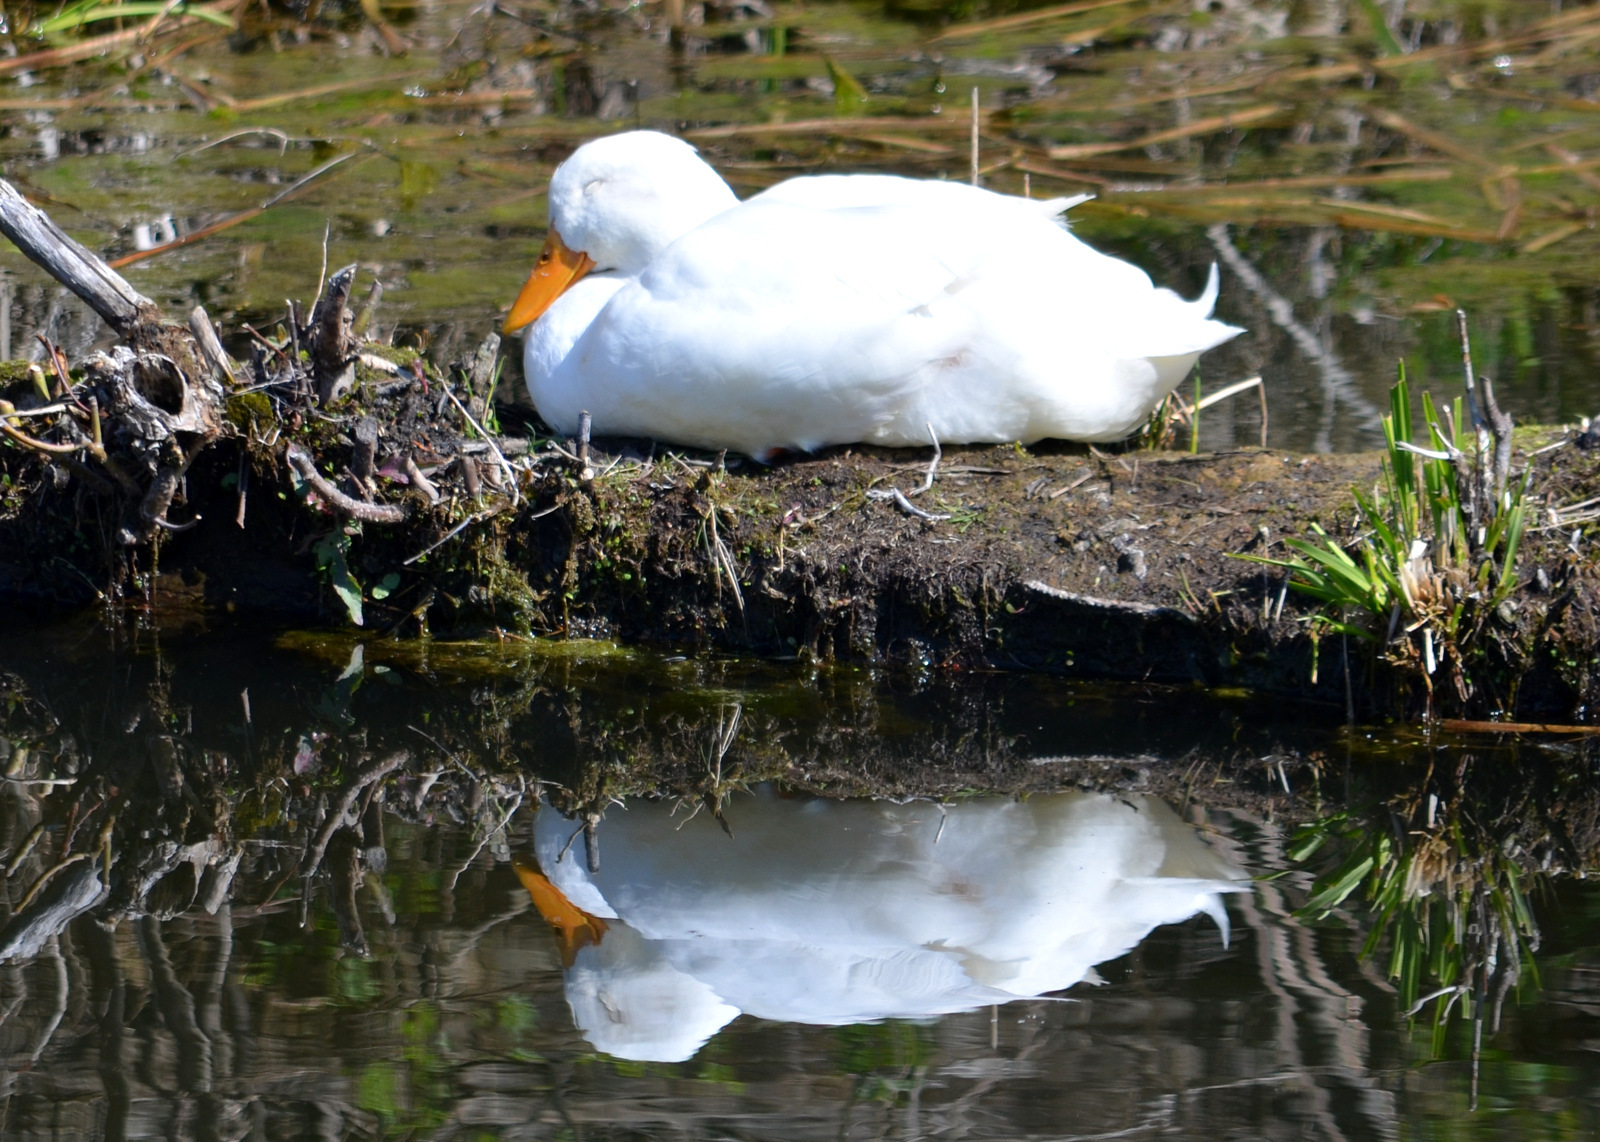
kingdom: Animalia
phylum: Chordata
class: Aves
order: Anseriformes
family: Anatidae
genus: Anas
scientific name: Anas platyrhynchos
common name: Mallard
